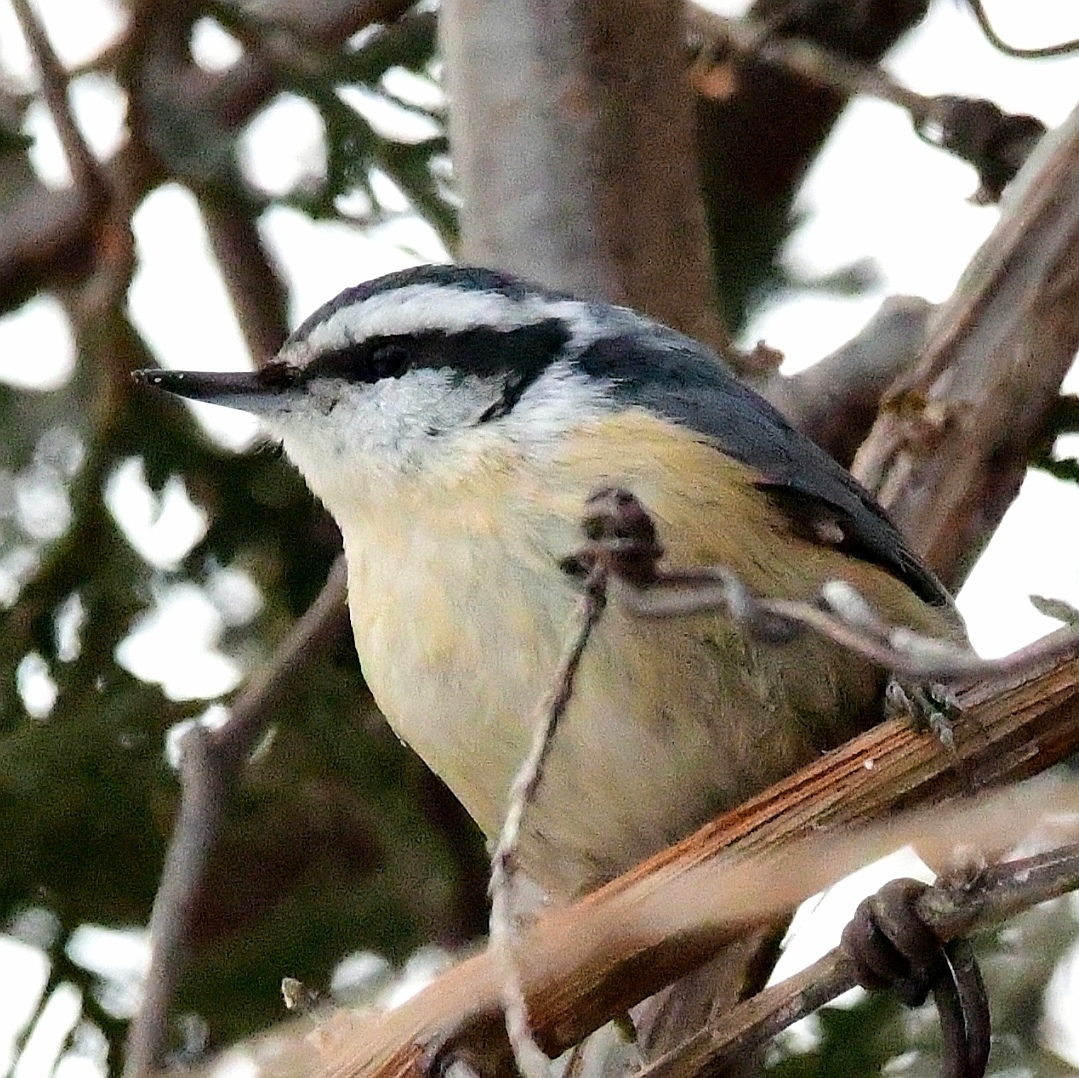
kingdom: Animalia
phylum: Chordata
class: Aves
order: Passeriformes
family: Sittidae
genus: Sitta
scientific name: Sitta canadensis
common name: Red-breasted nuthatch
